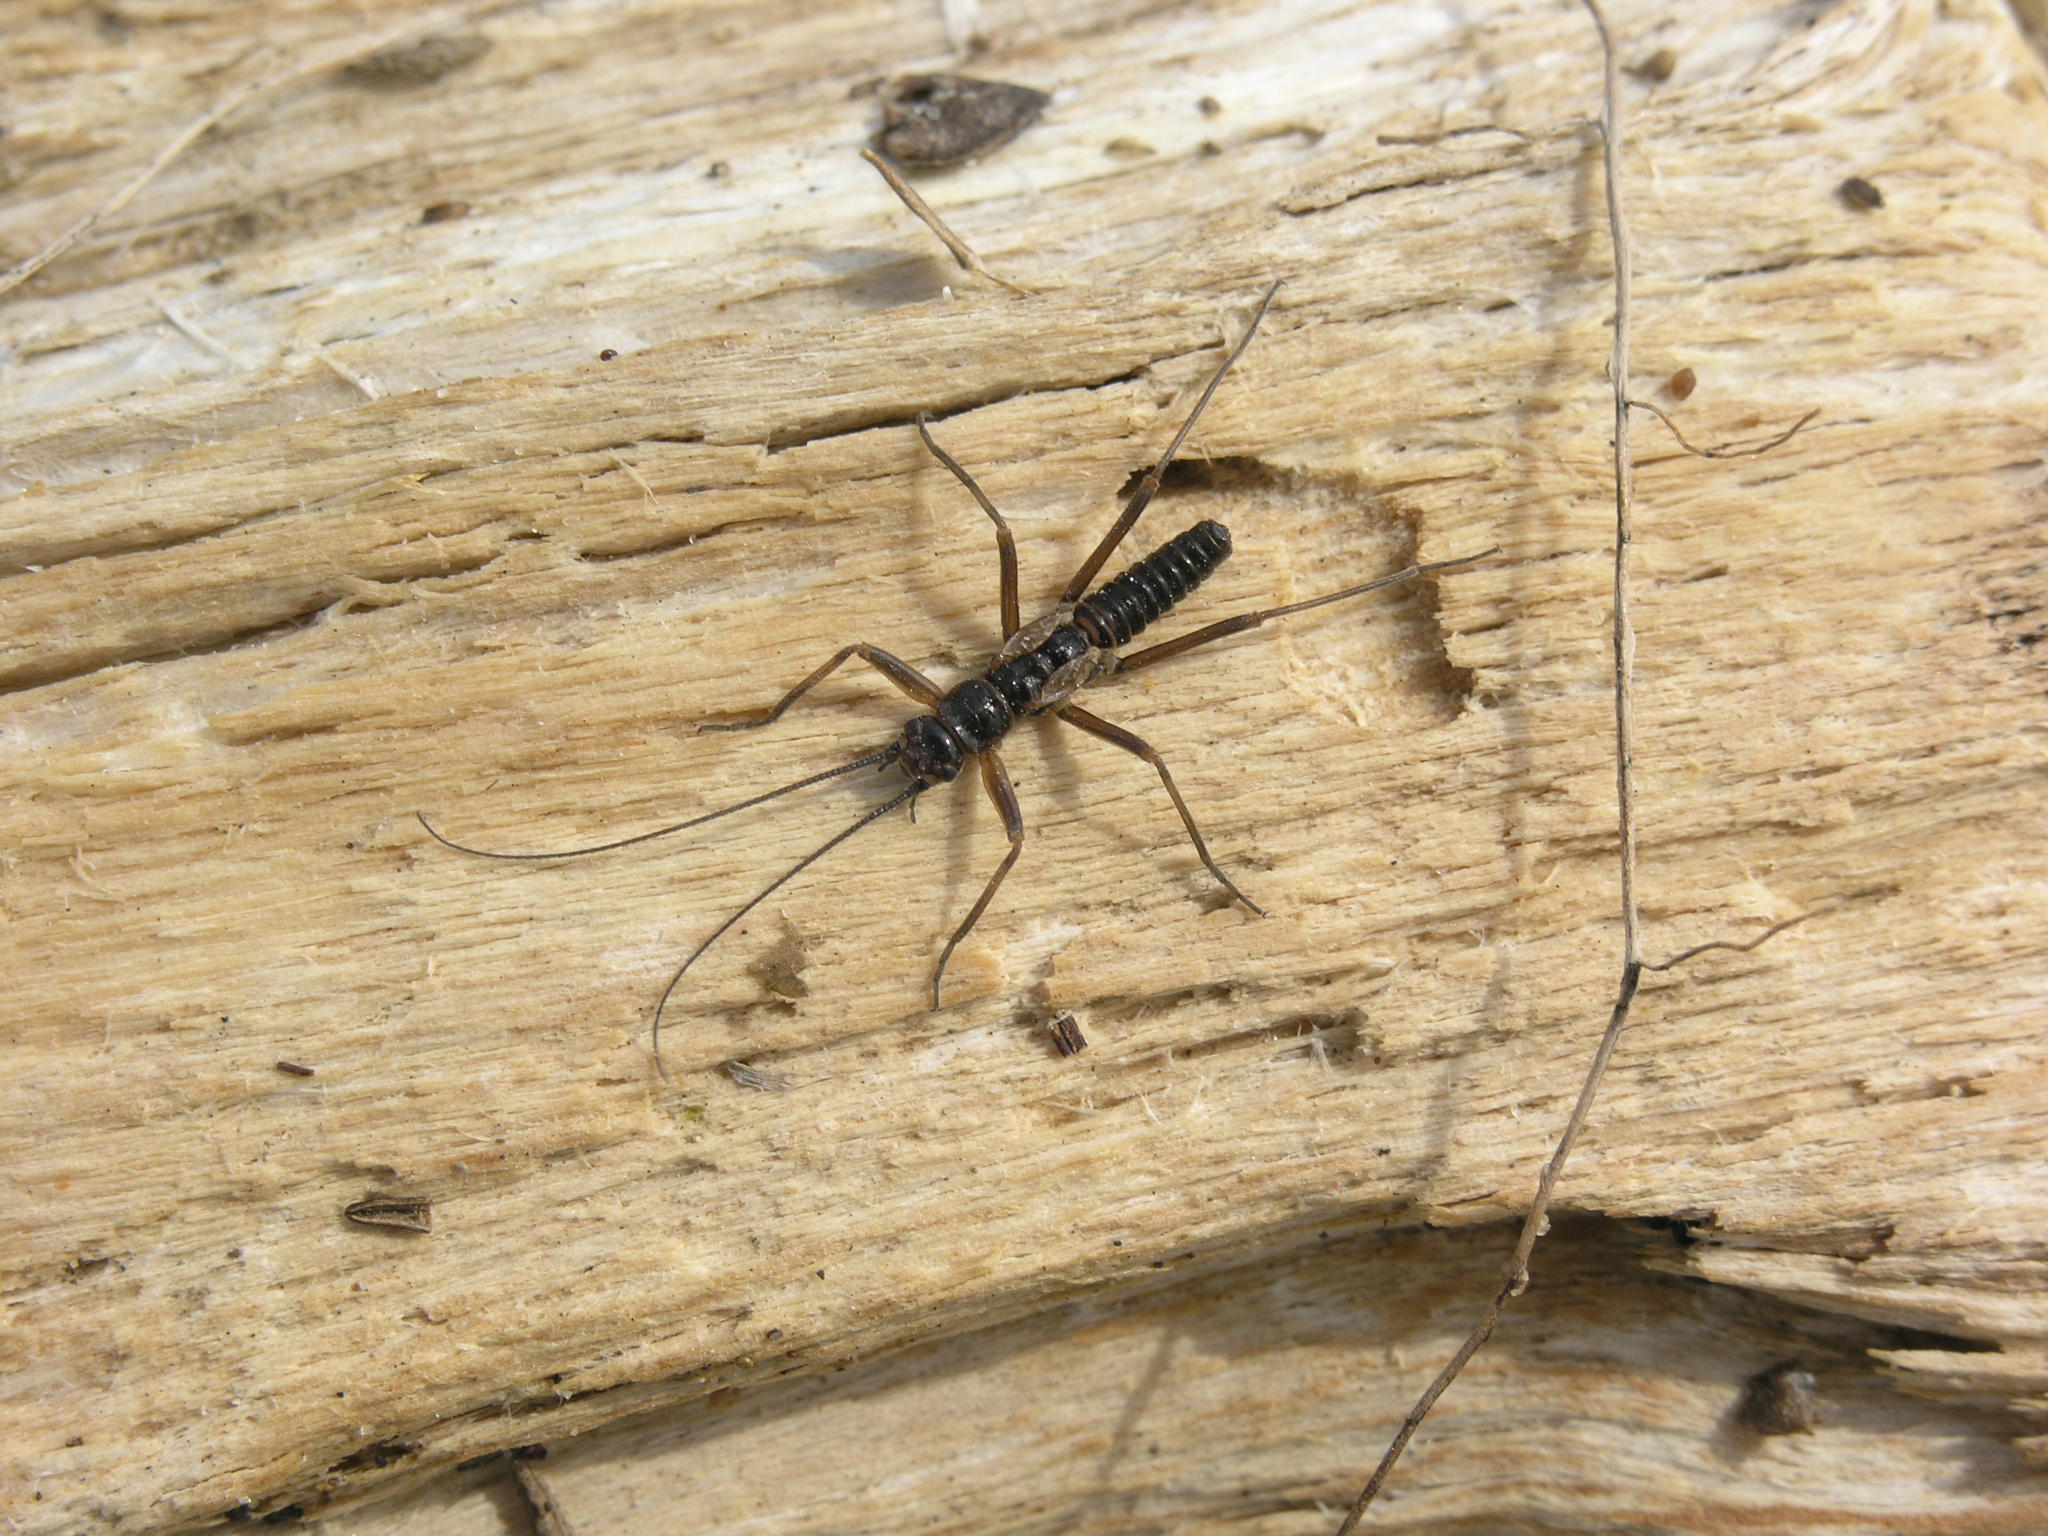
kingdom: Animalia
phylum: Arthropoda
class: Insecta
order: Plecoptera
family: Taeniopterygidae
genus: Taeniopteryx
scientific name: Taeniopteryx araneoides
